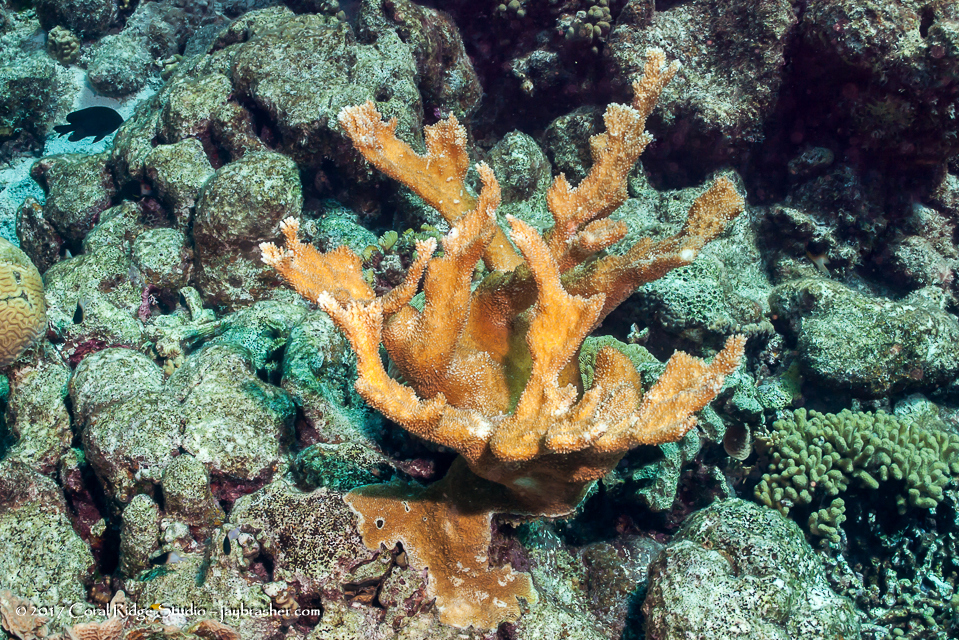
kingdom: Animalia
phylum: Cnidaria
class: Anthozoa
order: Scleractinia
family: Acroporidae
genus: Acropora
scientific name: Acropora palmata
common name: Elkhorn coral
